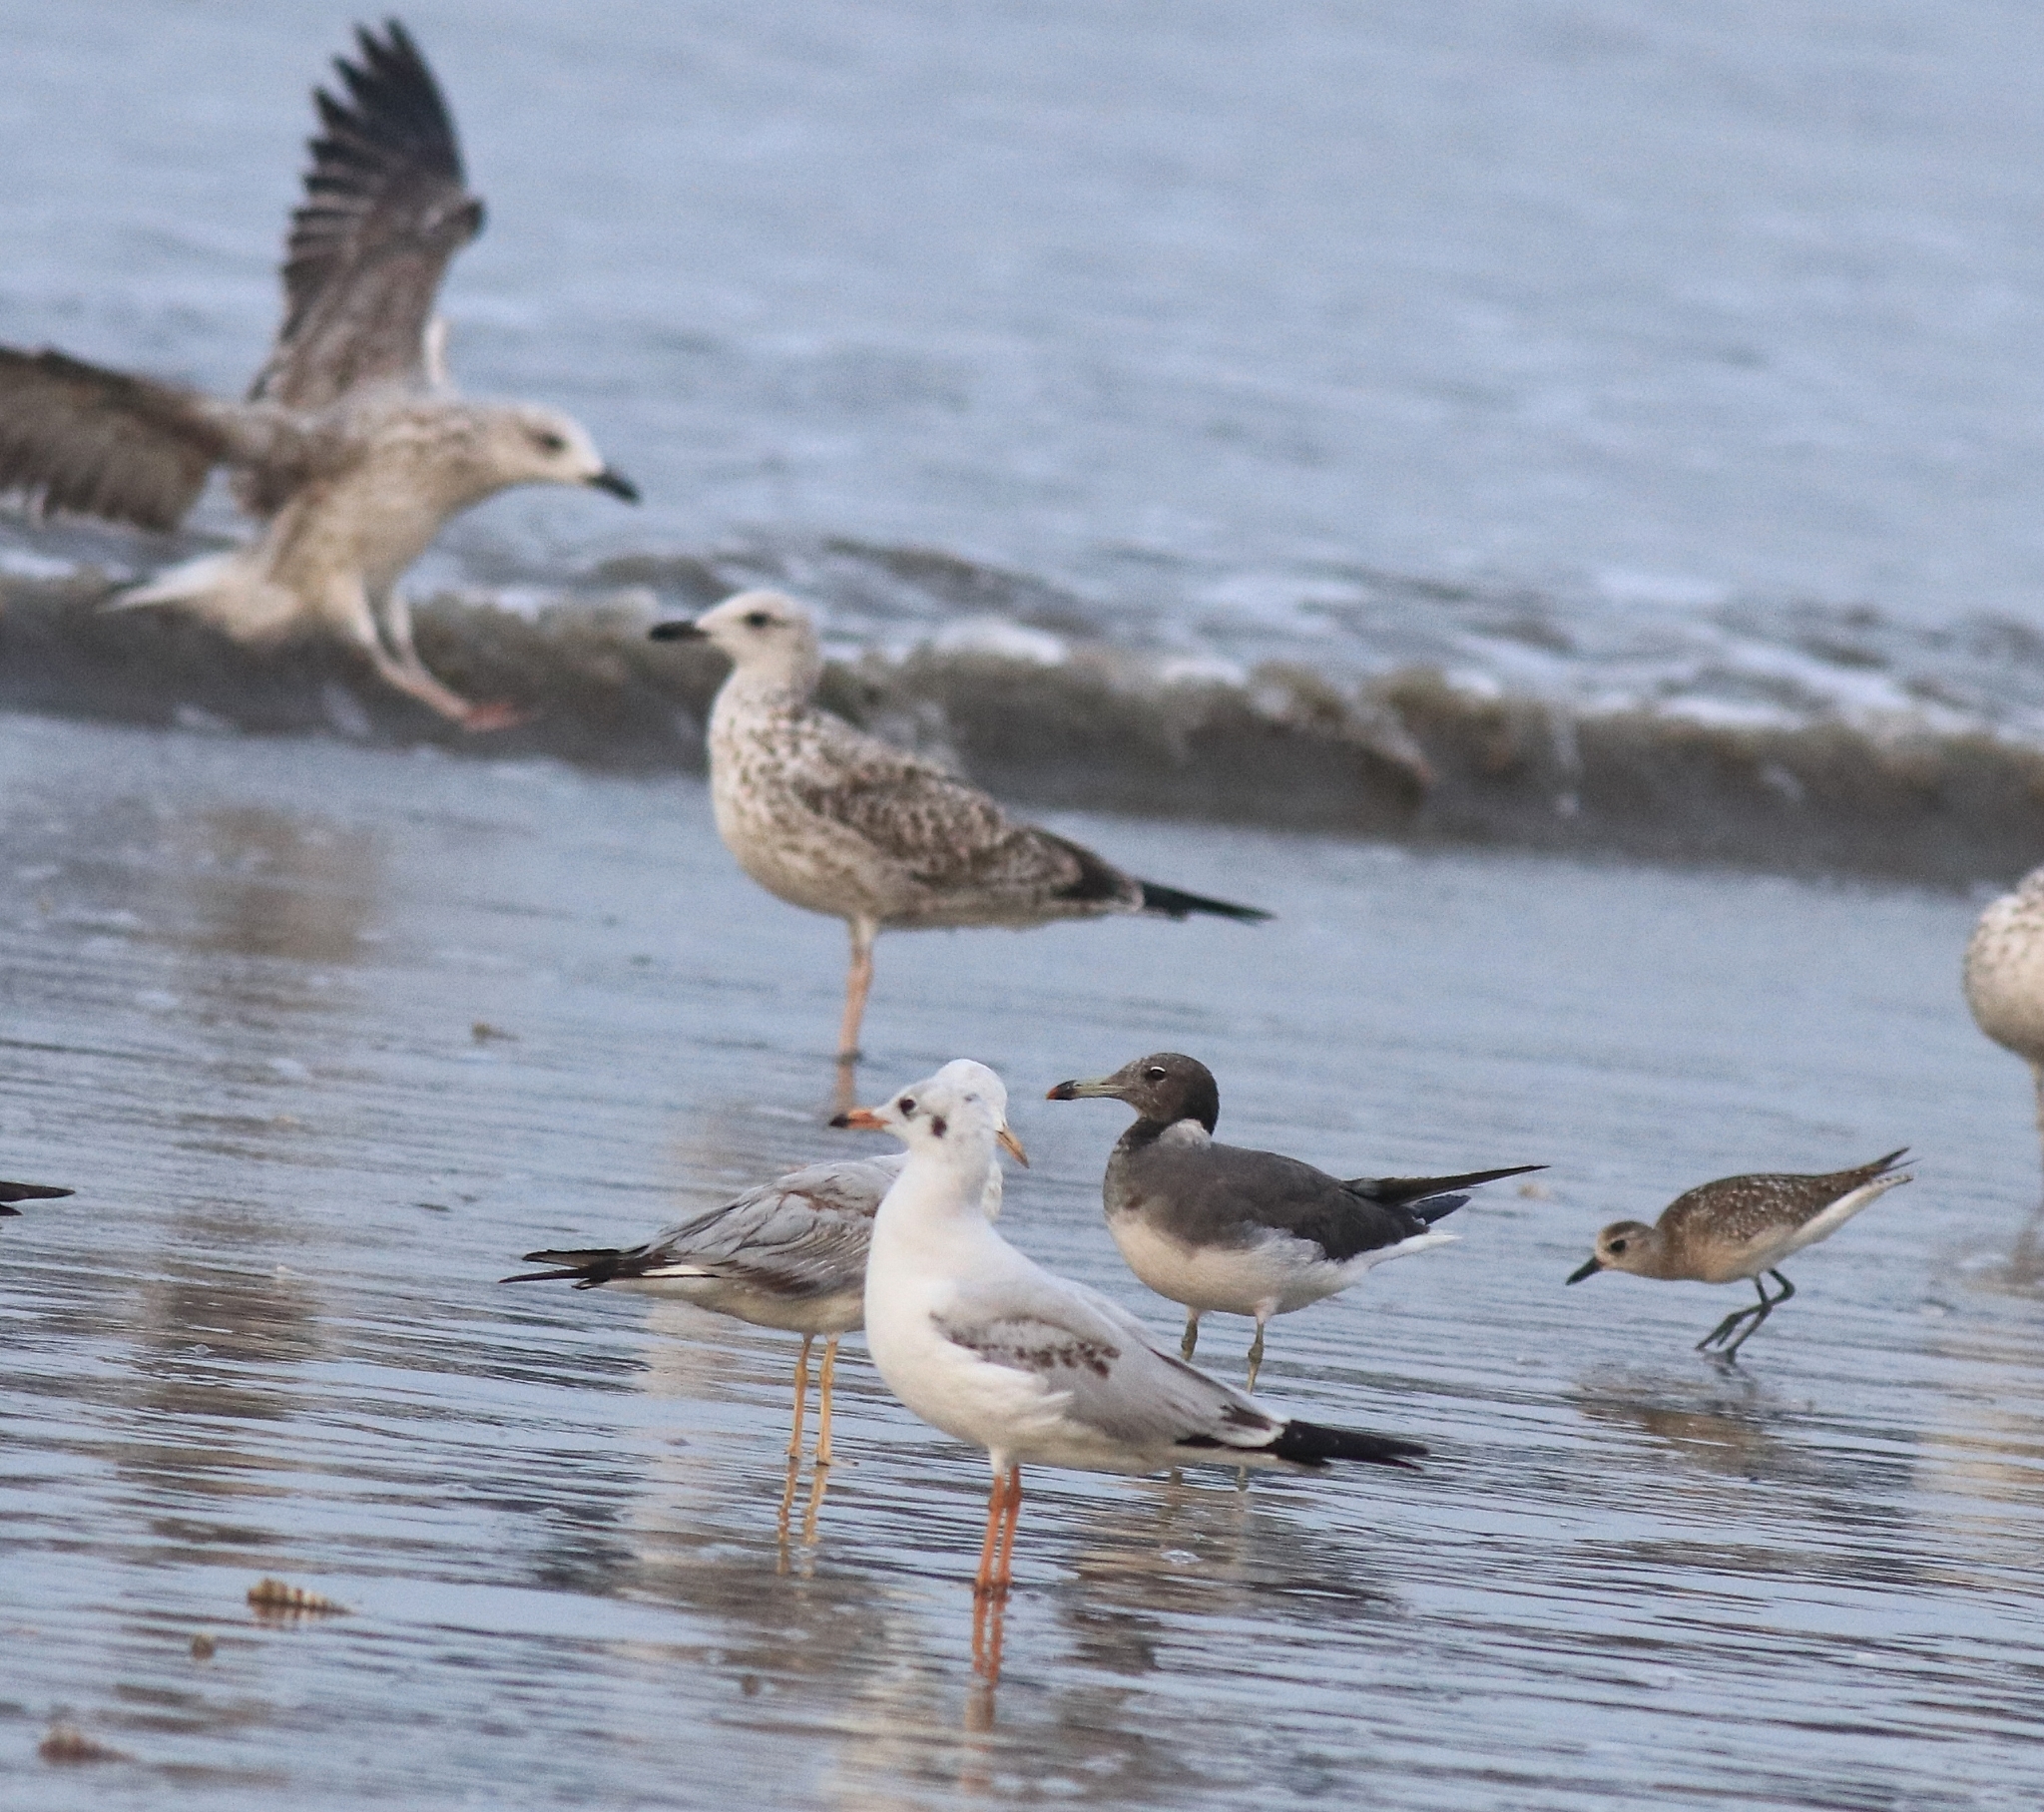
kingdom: Animalia
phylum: Chordata
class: Aves
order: Charadriiformes
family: Charadriidae
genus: Pluvialis
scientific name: Pluvialis squatarola
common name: Grey plover
